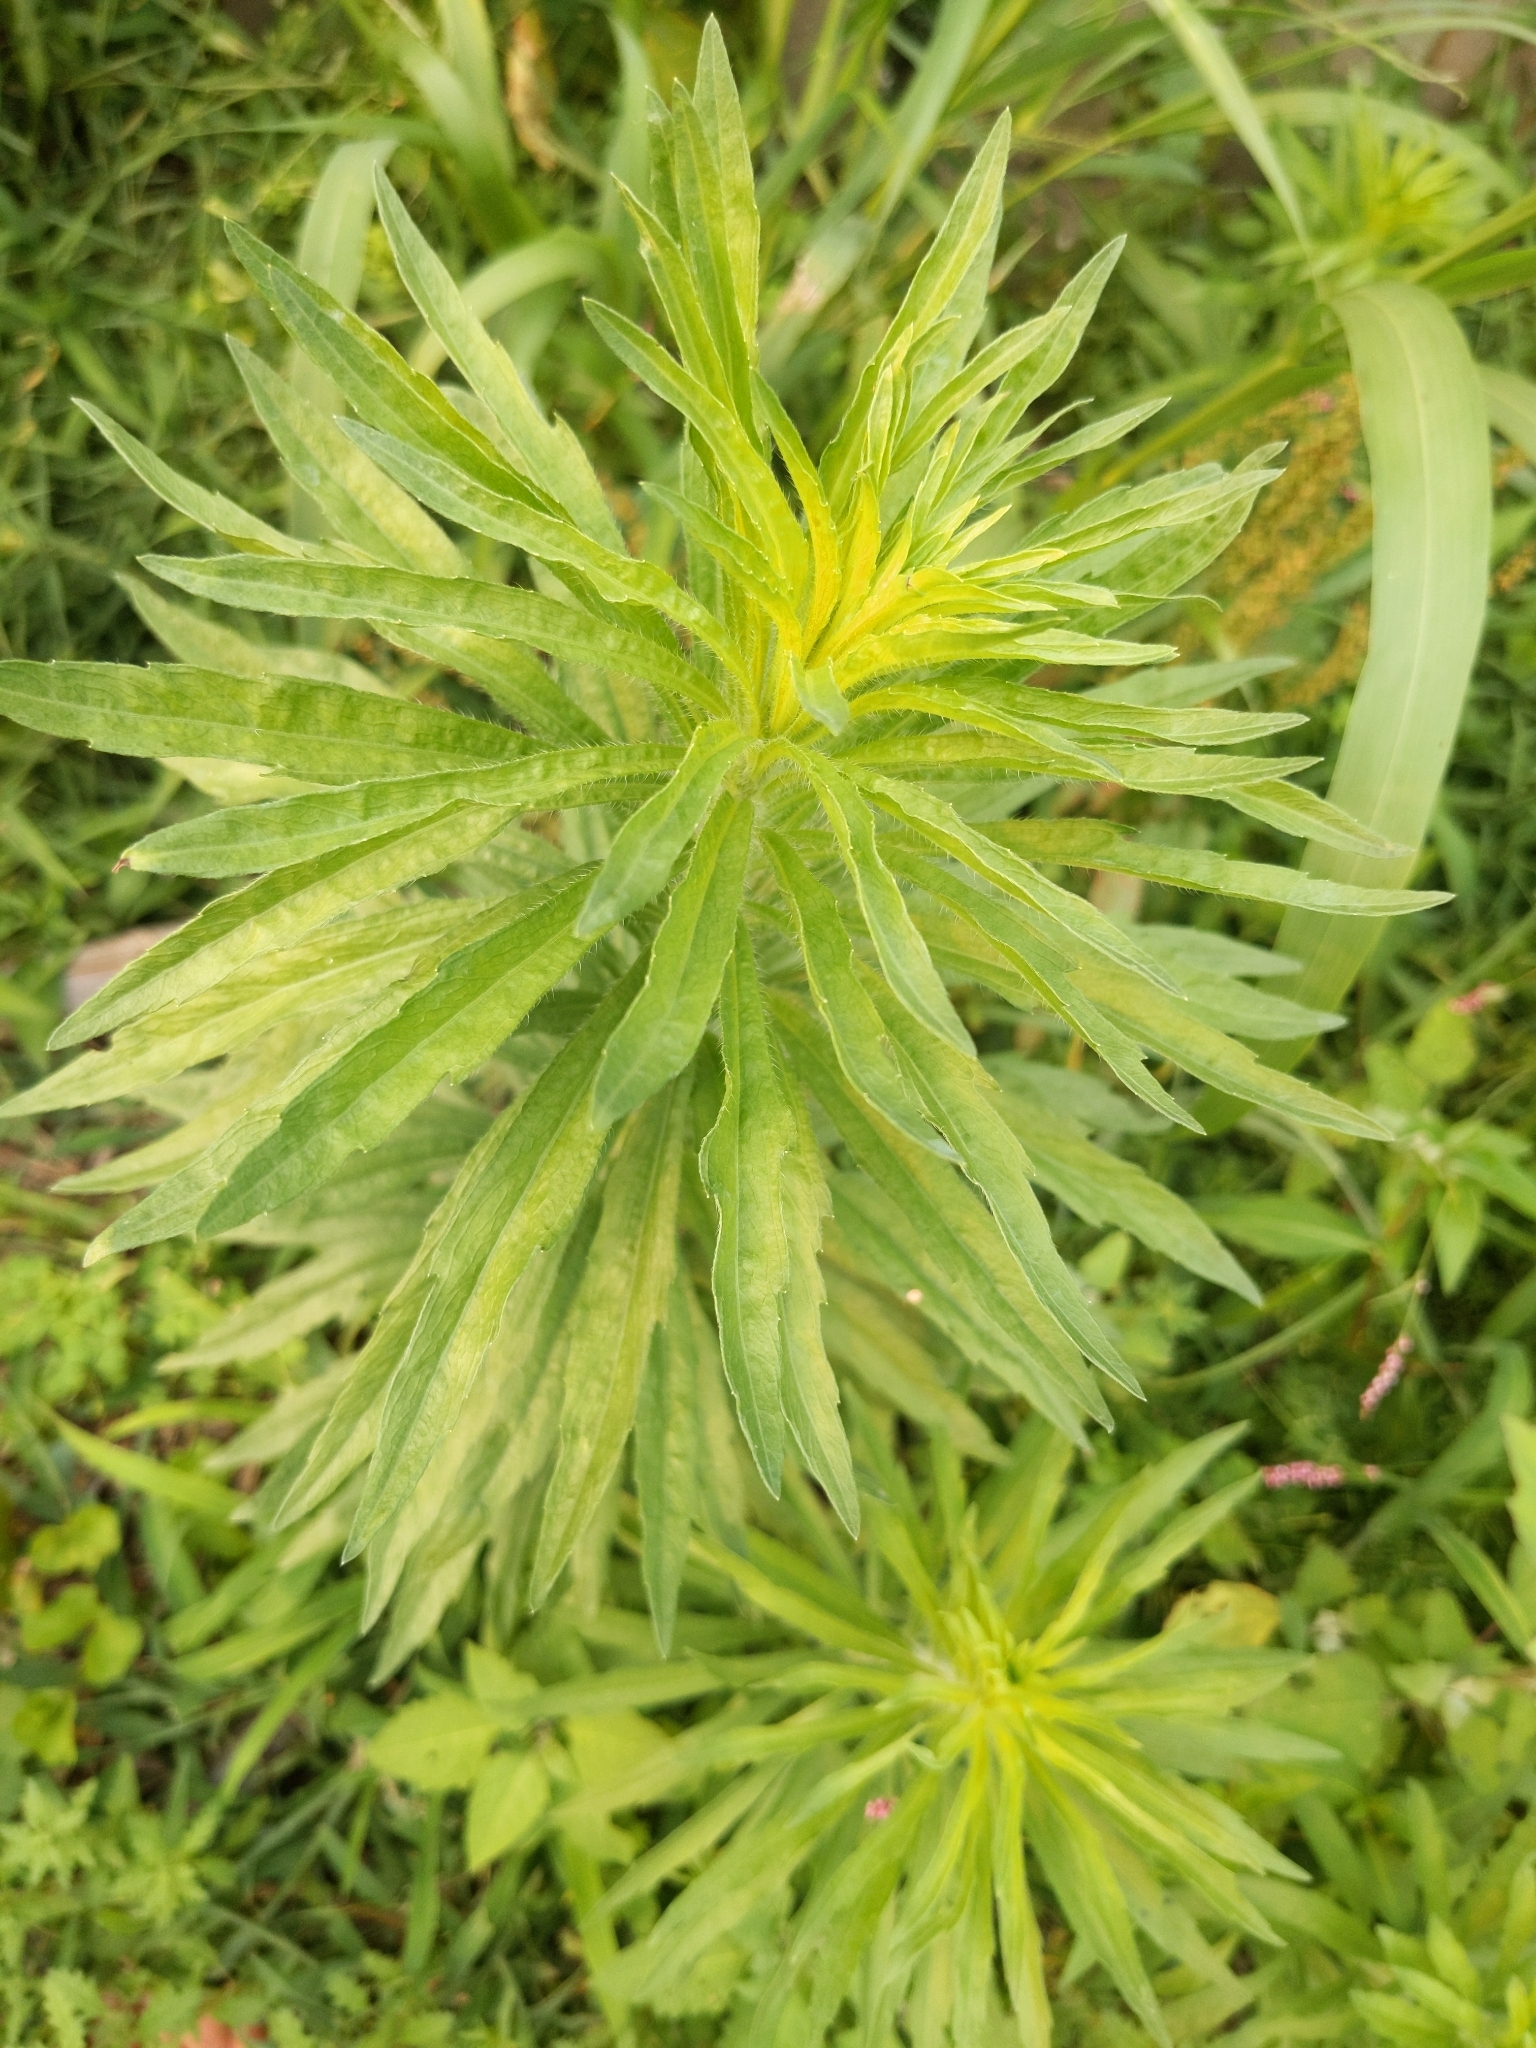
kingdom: Plantae
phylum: Tracheophyta
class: Magnoliopsida
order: Asterales
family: Asteraceae
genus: Erigeron
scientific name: Erigeron canadensis
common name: Canadian fleabane
